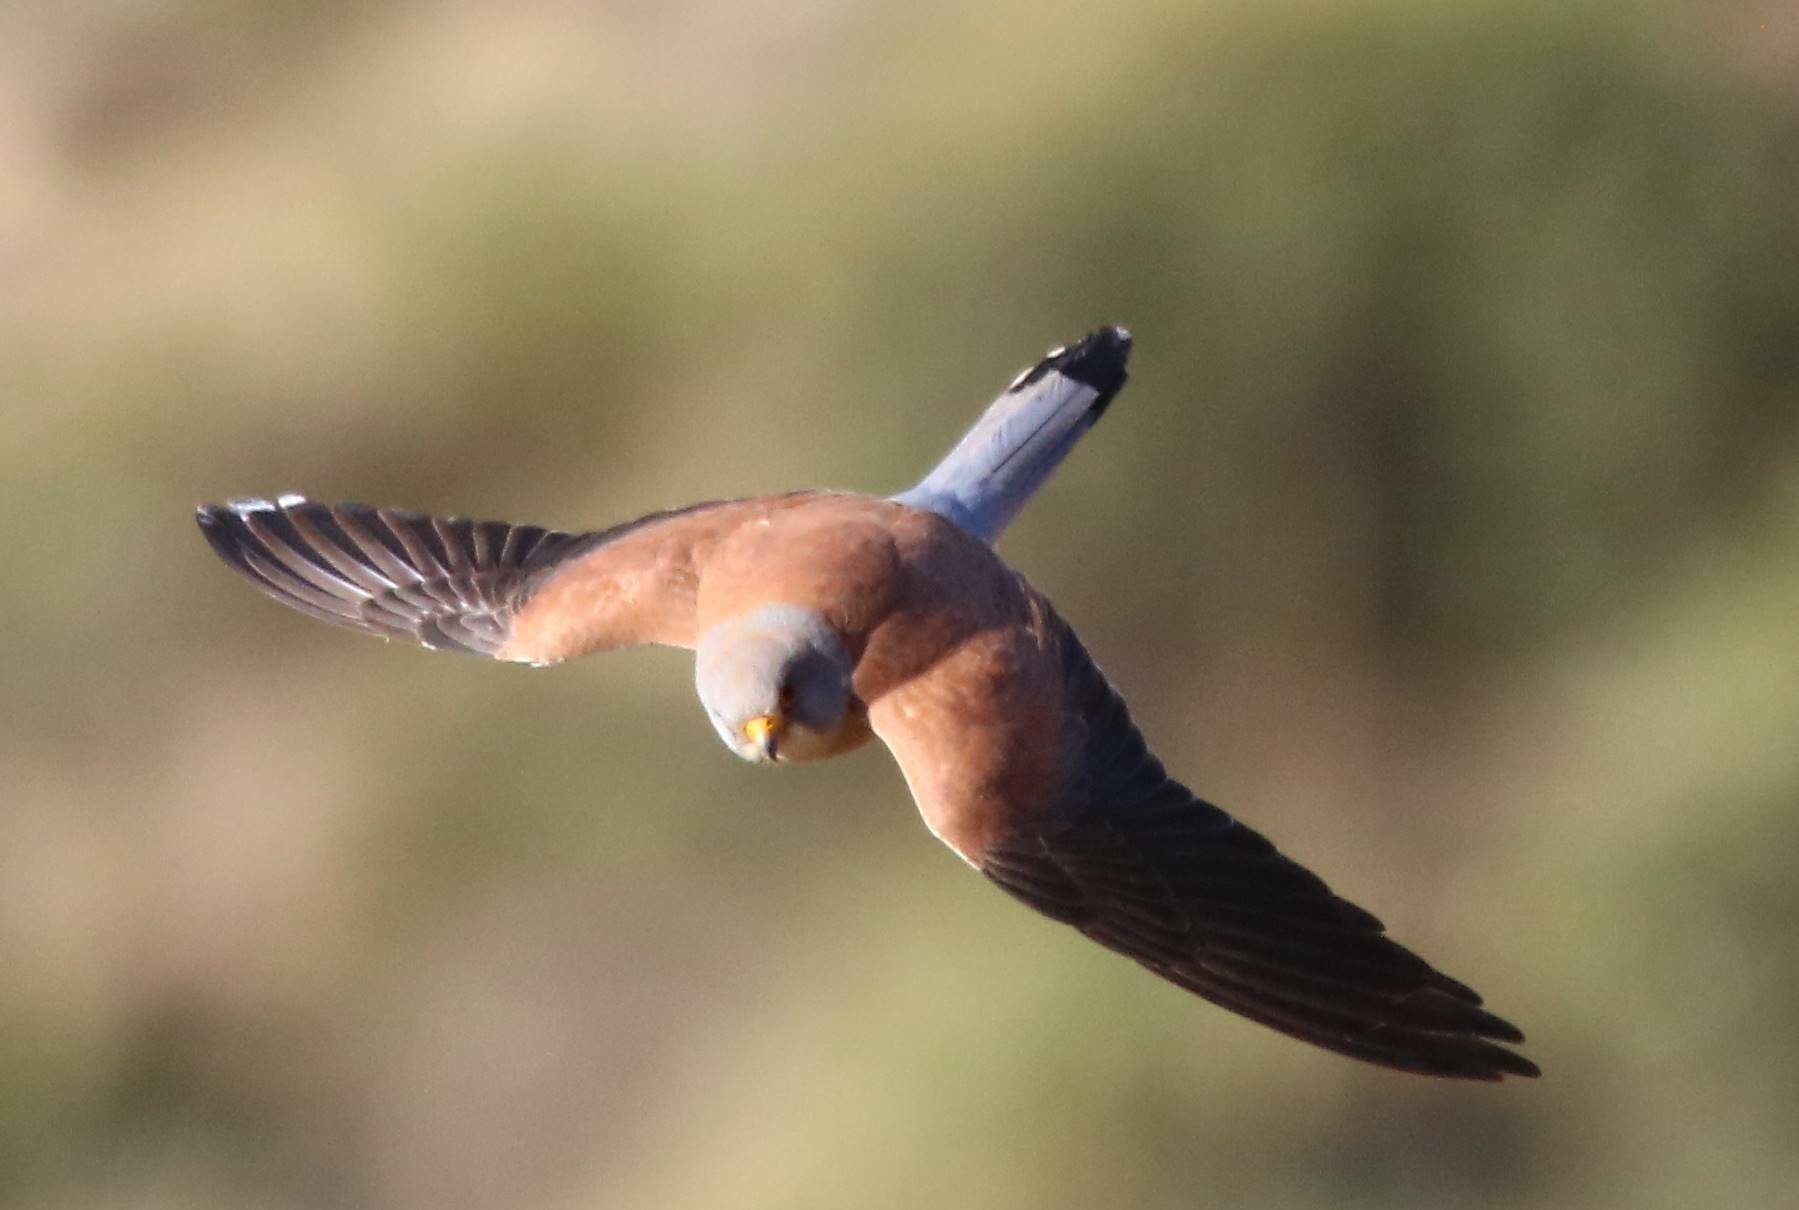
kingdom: Animalia
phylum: Chordata
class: Aves
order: Falconiformes
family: Falconidae
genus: Falco
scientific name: Falco naumanni
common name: Lesser kestrel
